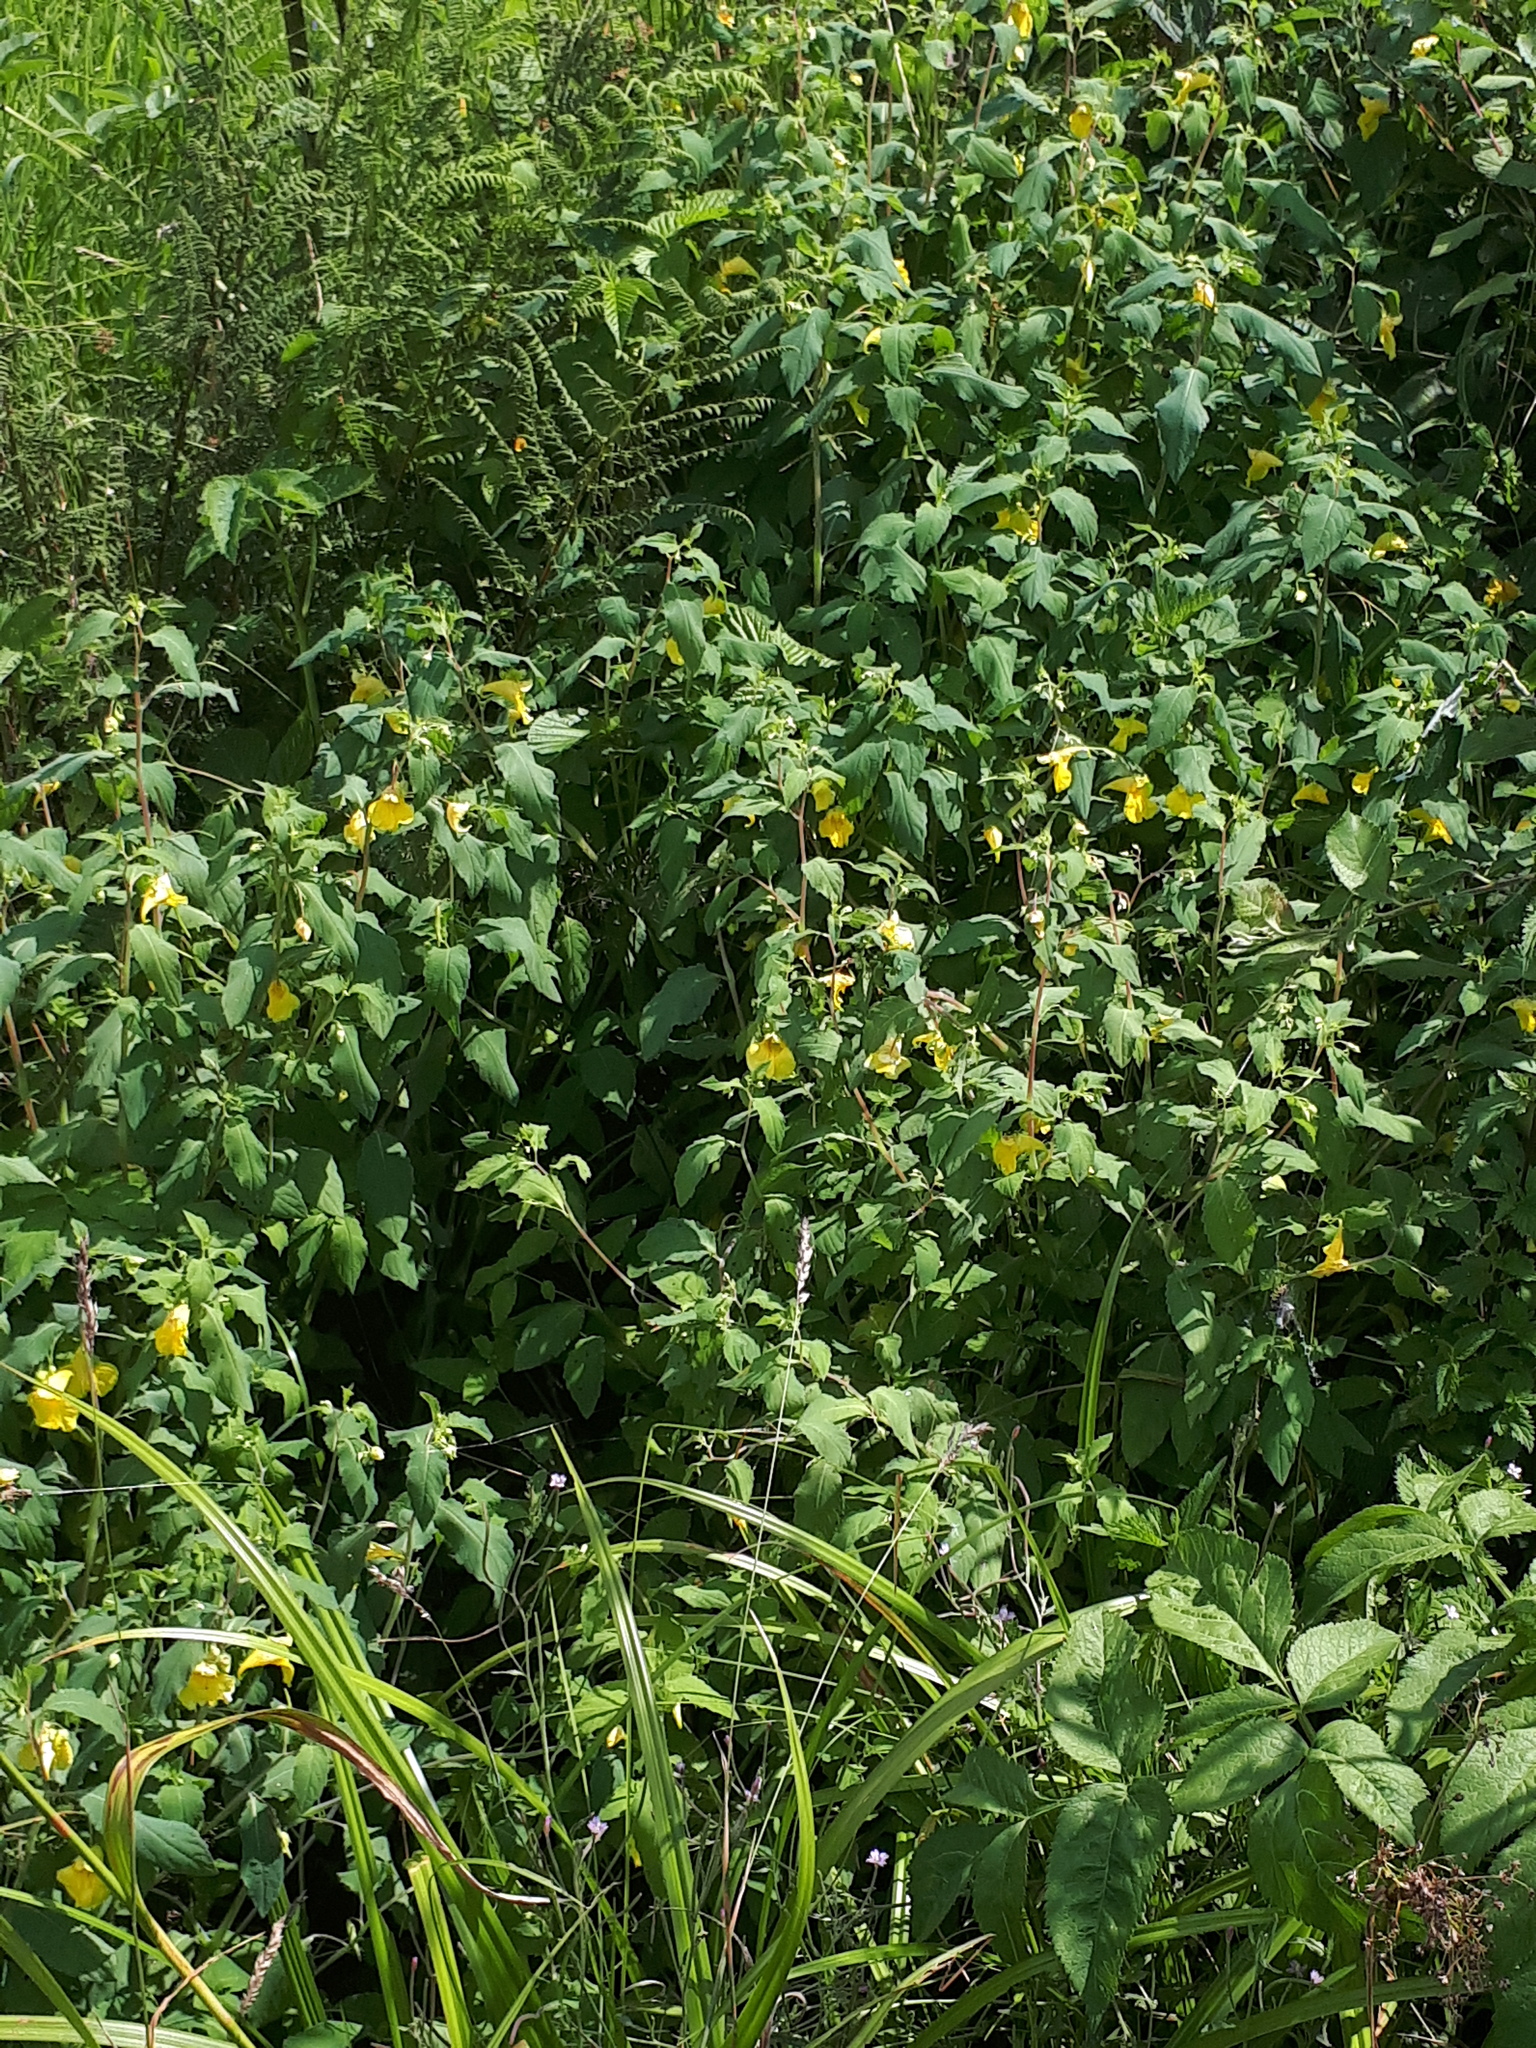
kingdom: Plantae
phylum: Tracheophyta
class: Magnoliopsida
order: Ericales
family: Balsaminaceae
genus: Impatiens
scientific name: Impatiens noli-tangere
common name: Touch-me-not balsam
